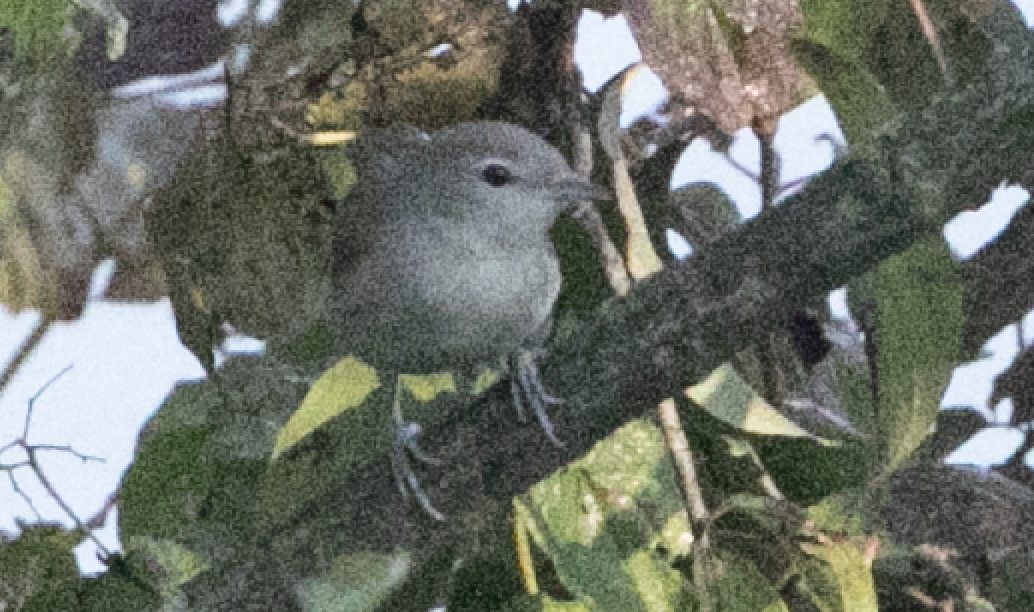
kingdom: Animalia
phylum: Chordata
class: Aves
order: Passeriformes
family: Sylviidae
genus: Sylvia
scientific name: Sylvia borin
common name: Garden warbler
